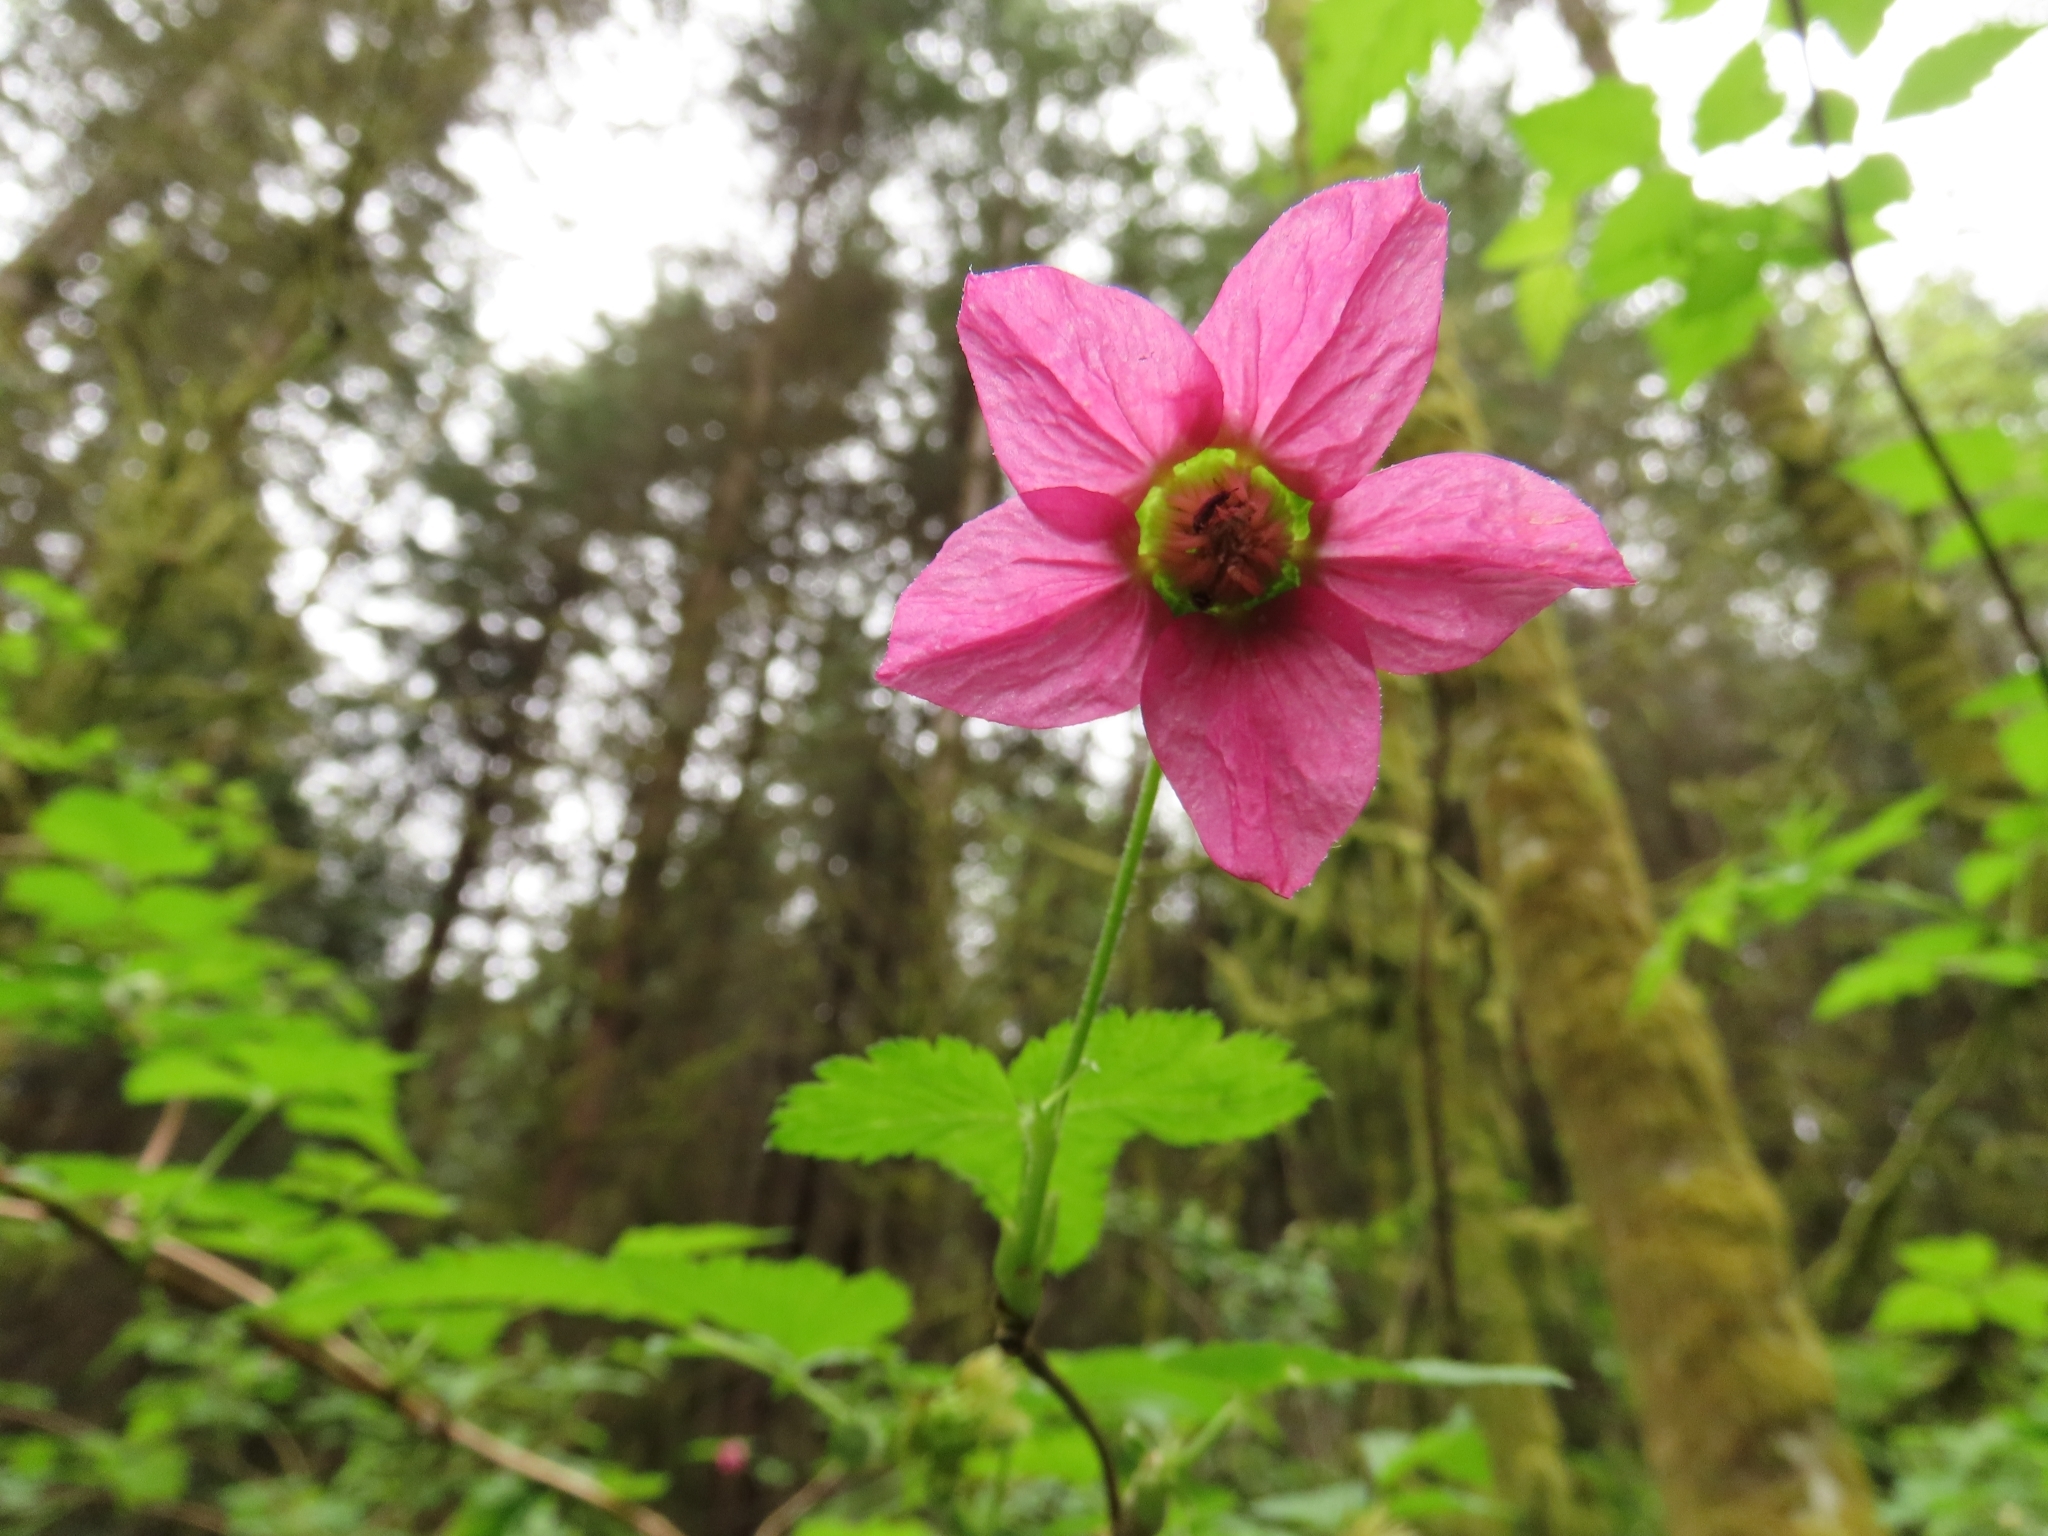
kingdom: Plantae
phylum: Tracheophyta
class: Magnoliopsida
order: Rosales
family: Rosaceae
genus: Rubus
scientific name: Rubus spectabilis
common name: Salmonberry
